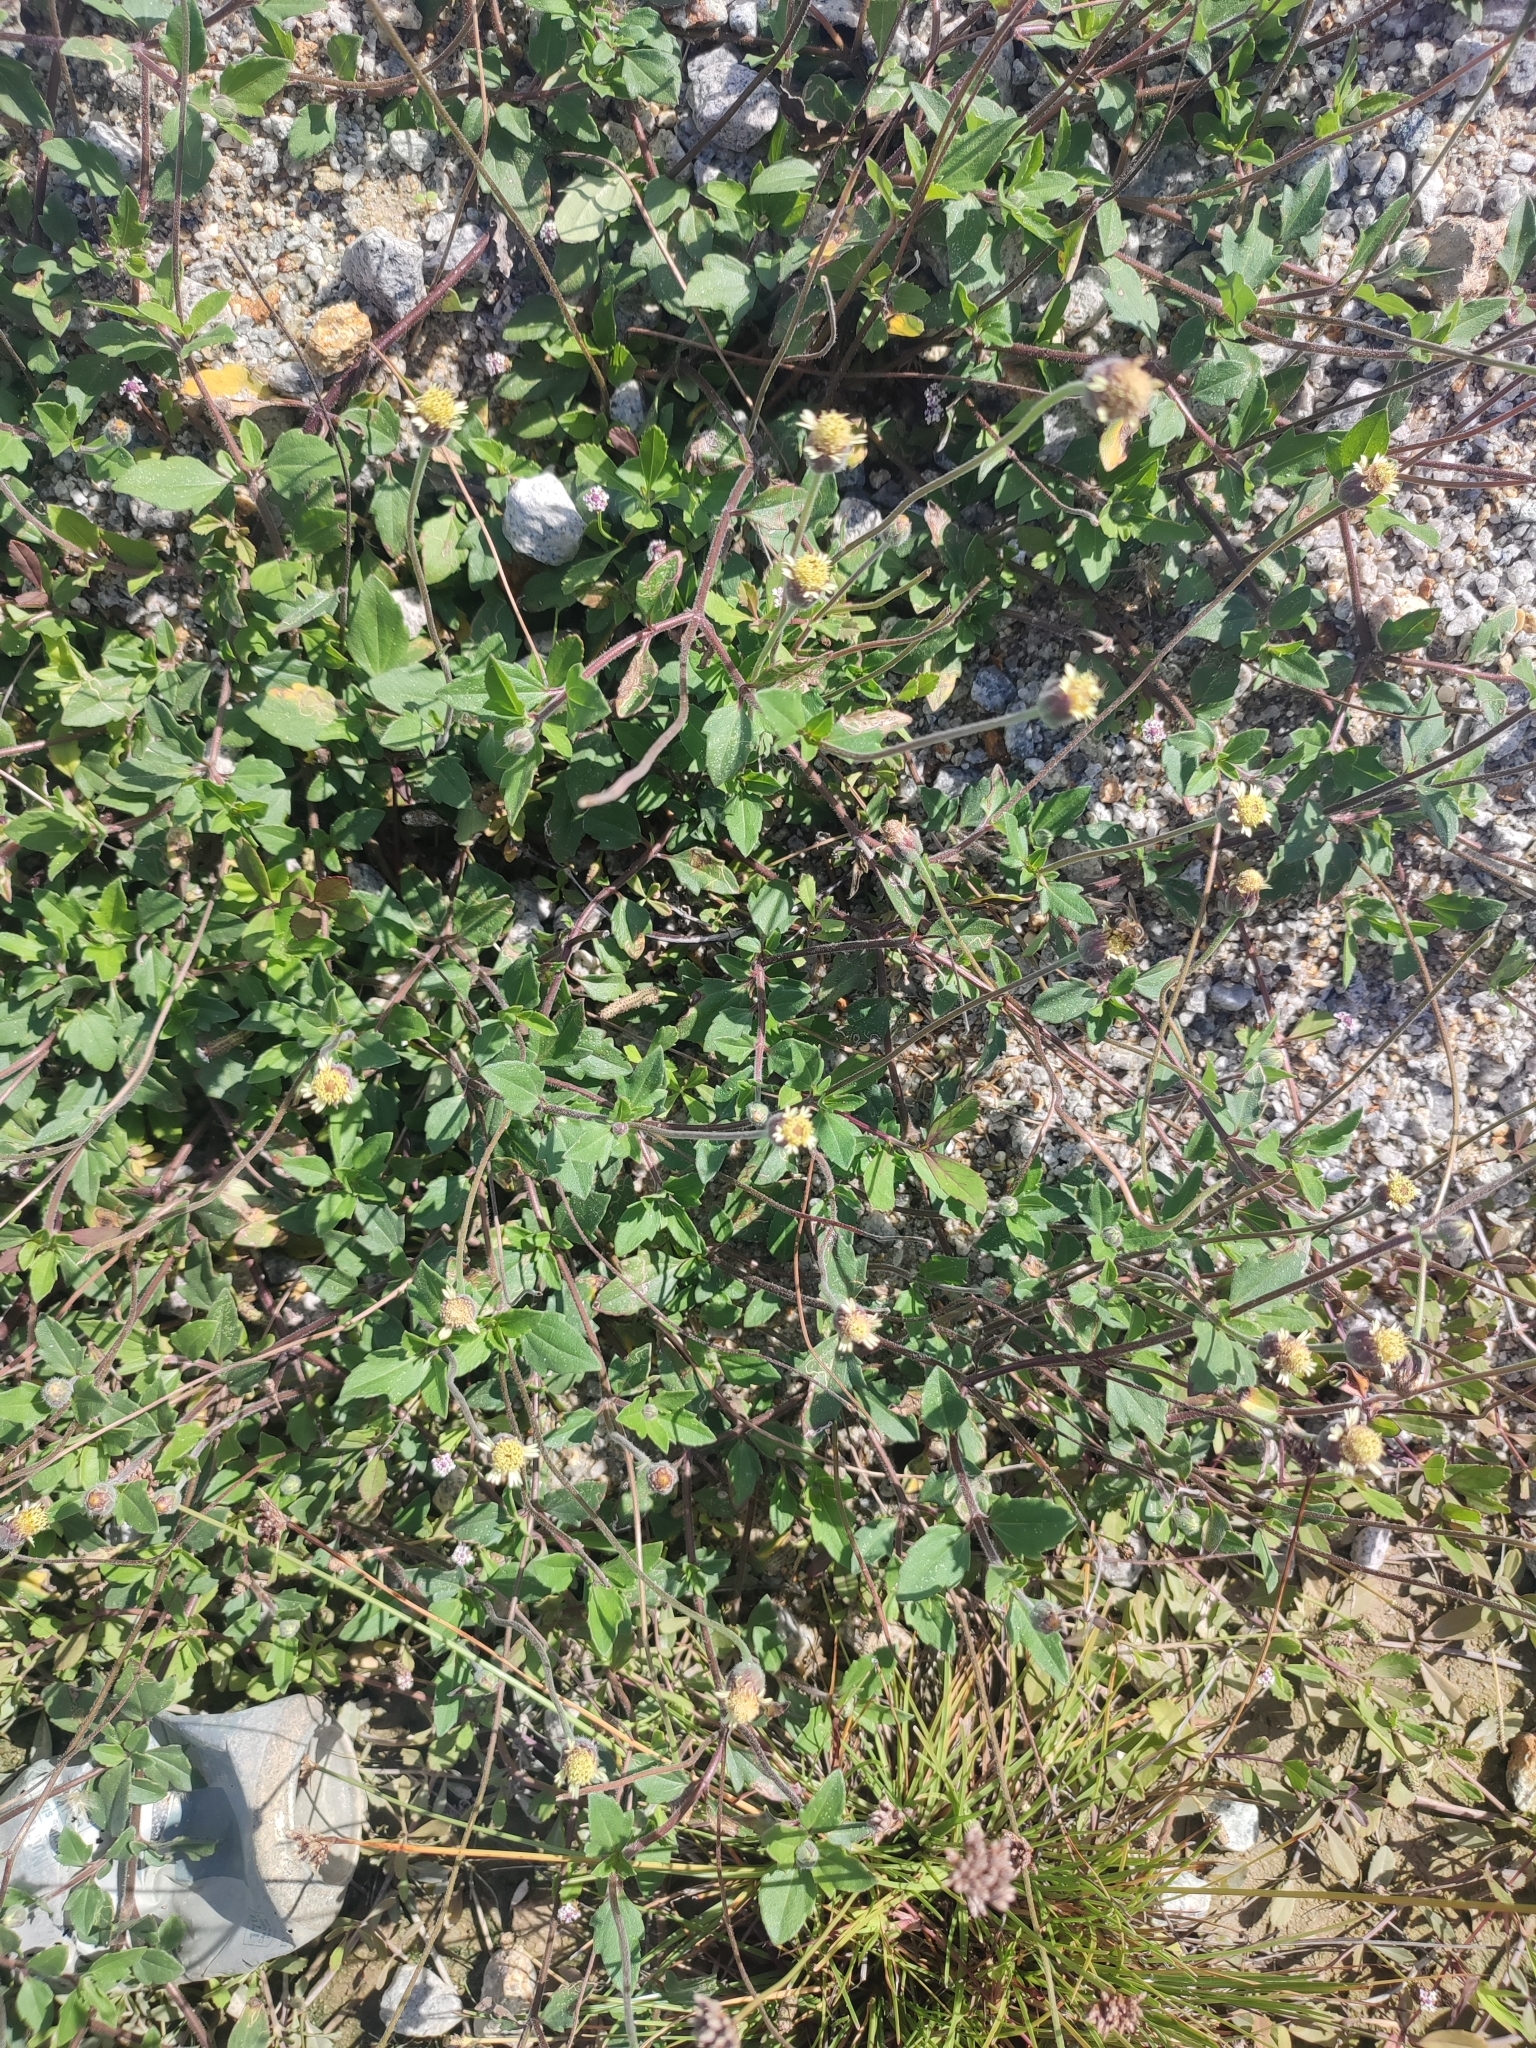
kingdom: Plantae
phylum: Tracheophyta
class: Magnoliopsida
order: Asterales
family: Asteraceae
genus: Tridax
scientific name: Tridax procumbens
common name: Coatbuttons
